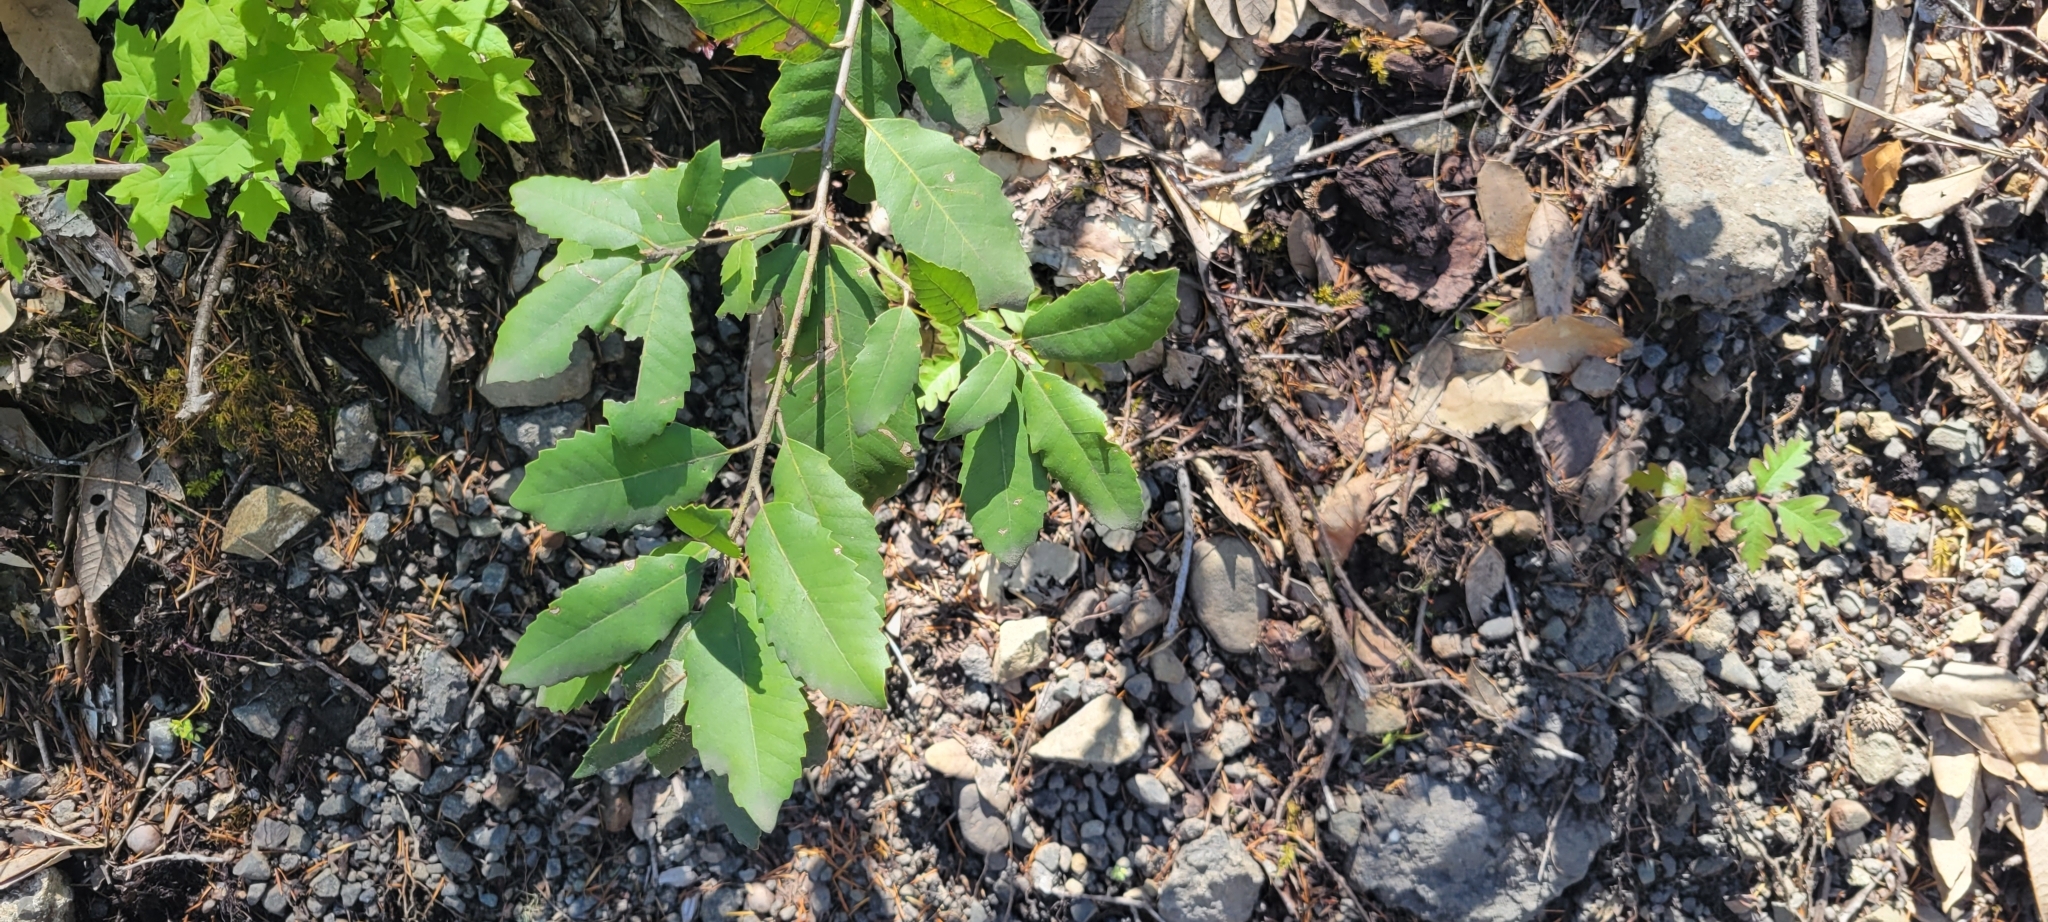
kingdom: Plantae
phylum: Tracheophyta
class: Magnoliopsida
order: Fagales
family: Fagaceae
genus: Notholithocarpus
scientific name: Notholithocarpus densiflorus
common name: Tan bark oak
